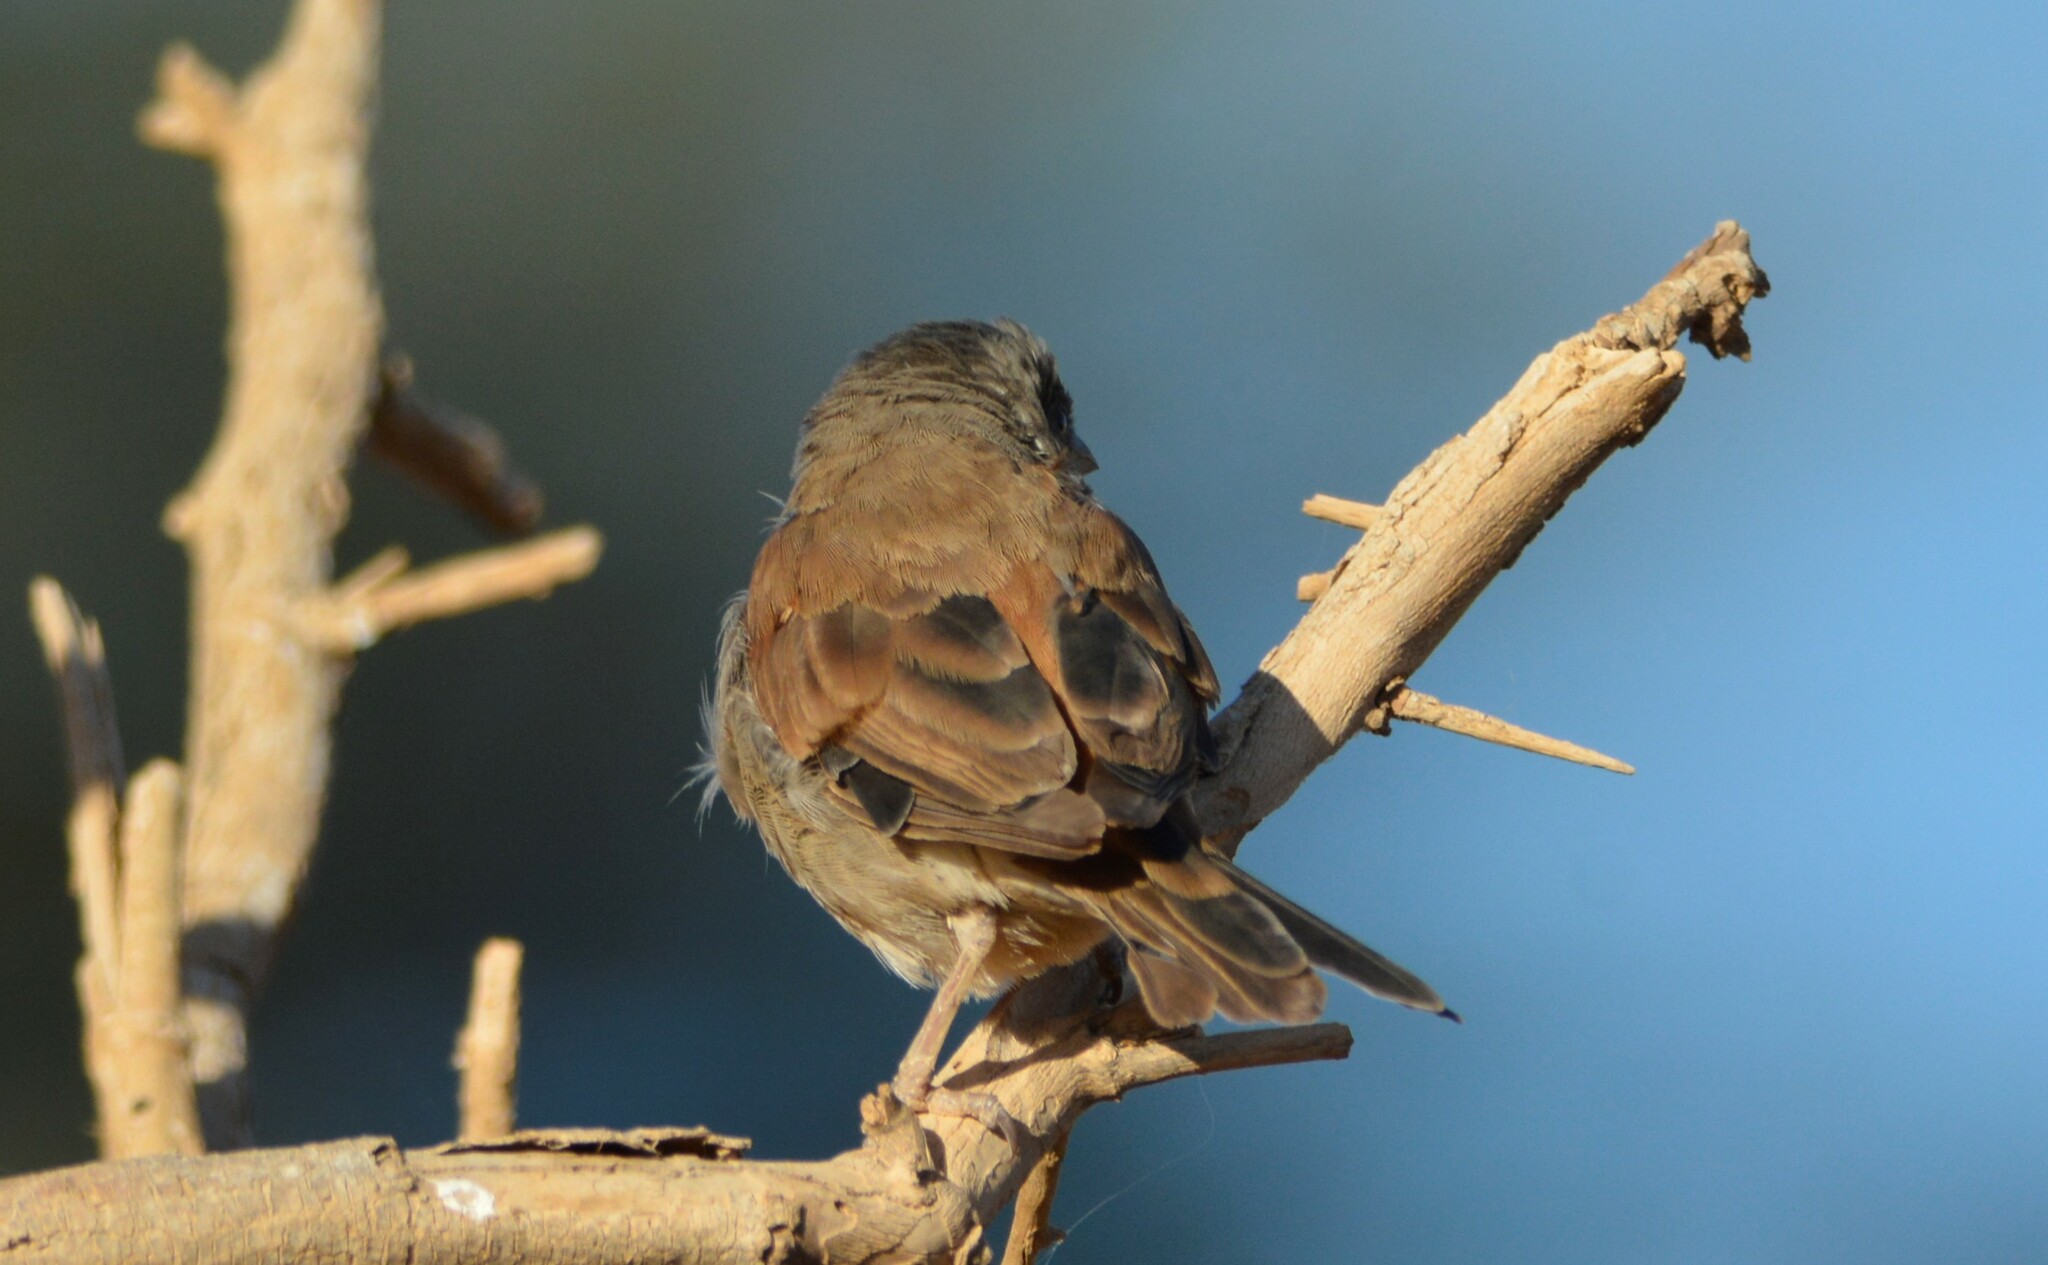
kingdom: Animalia
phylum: Chordata
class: Aves
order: Passeriformes
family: Passeridae
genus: Passer
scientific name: Passer griseus
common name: Northern grey-headed sparrow
